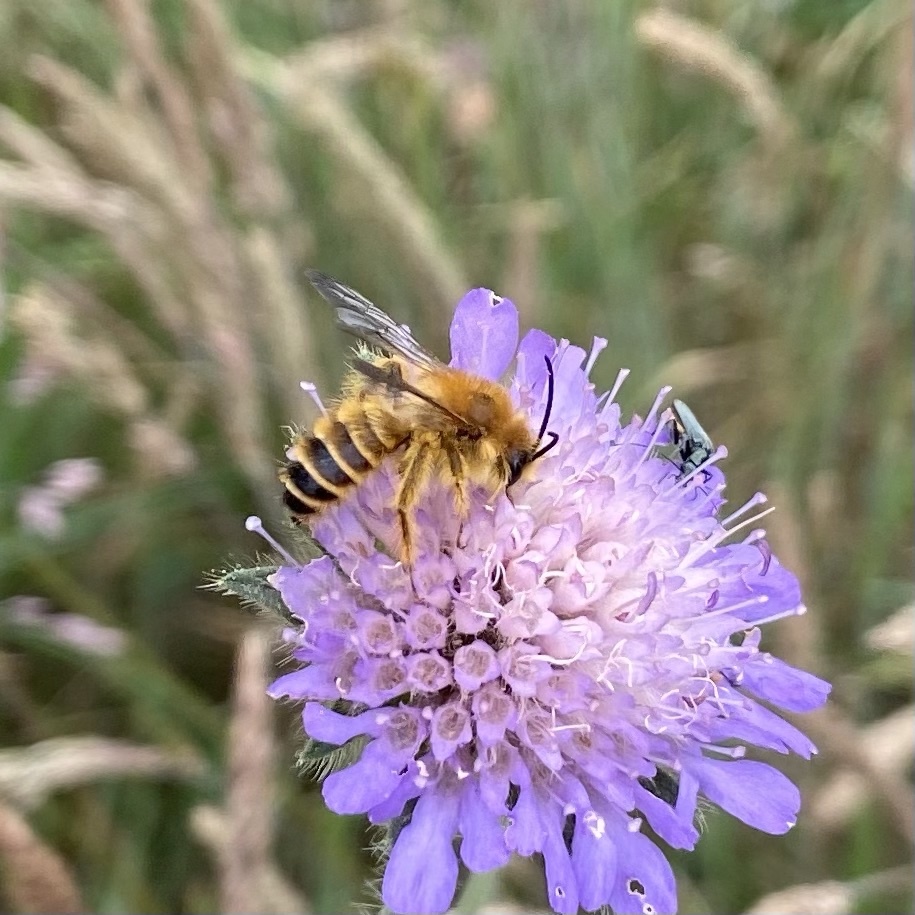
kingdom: Animalia
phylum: Arthropoda
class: Insecta
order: Hymenoptera
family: Melittidae
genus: Dasypoda
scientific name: Dasypoda hirtipes
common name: Pantaloon bee
